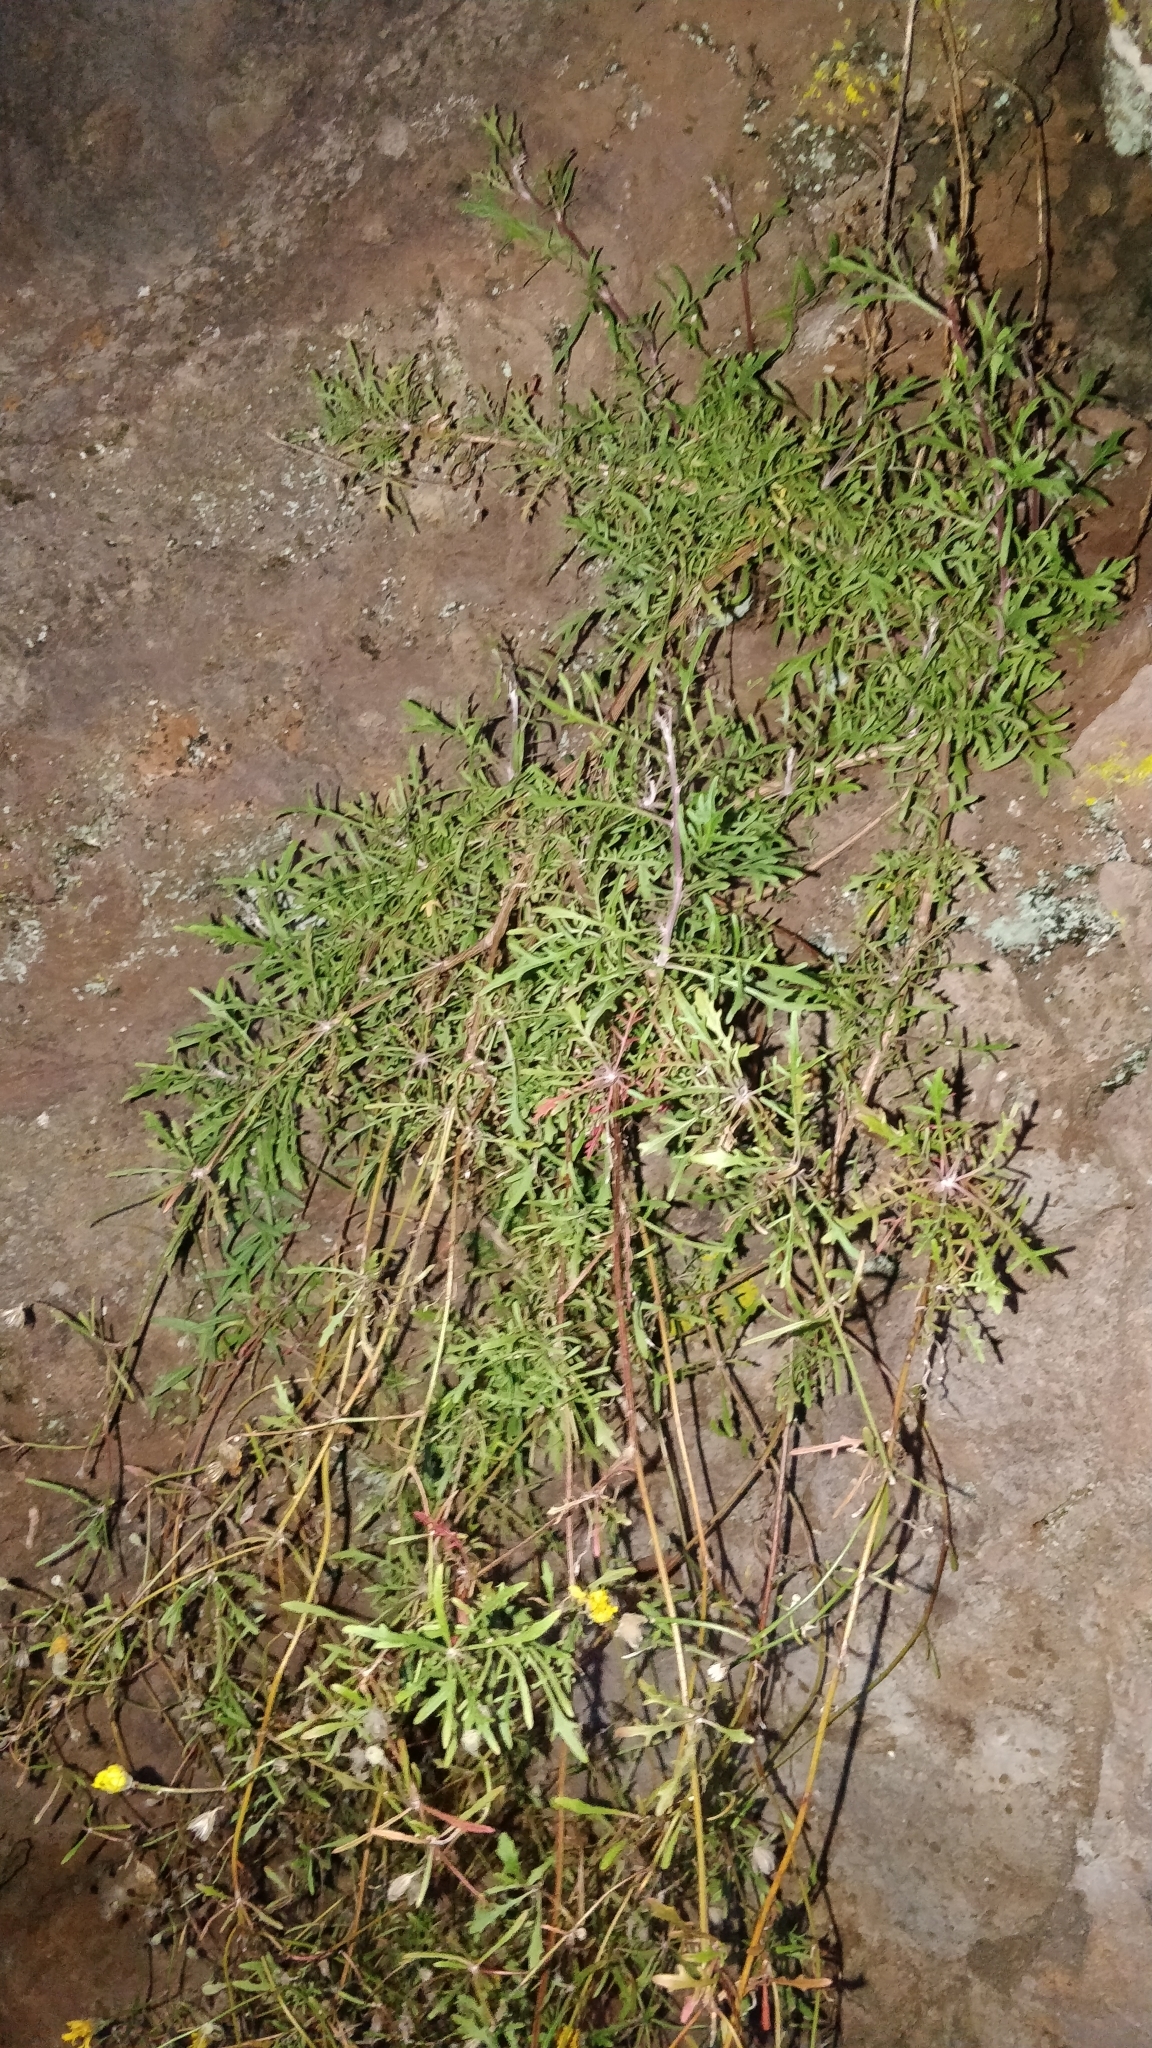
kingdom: Plantae
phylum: Tracheophyta
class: Magnoliopsida
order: Asterales
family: Asteraceae
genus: Tolpis
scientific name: Tolpis succulenta
